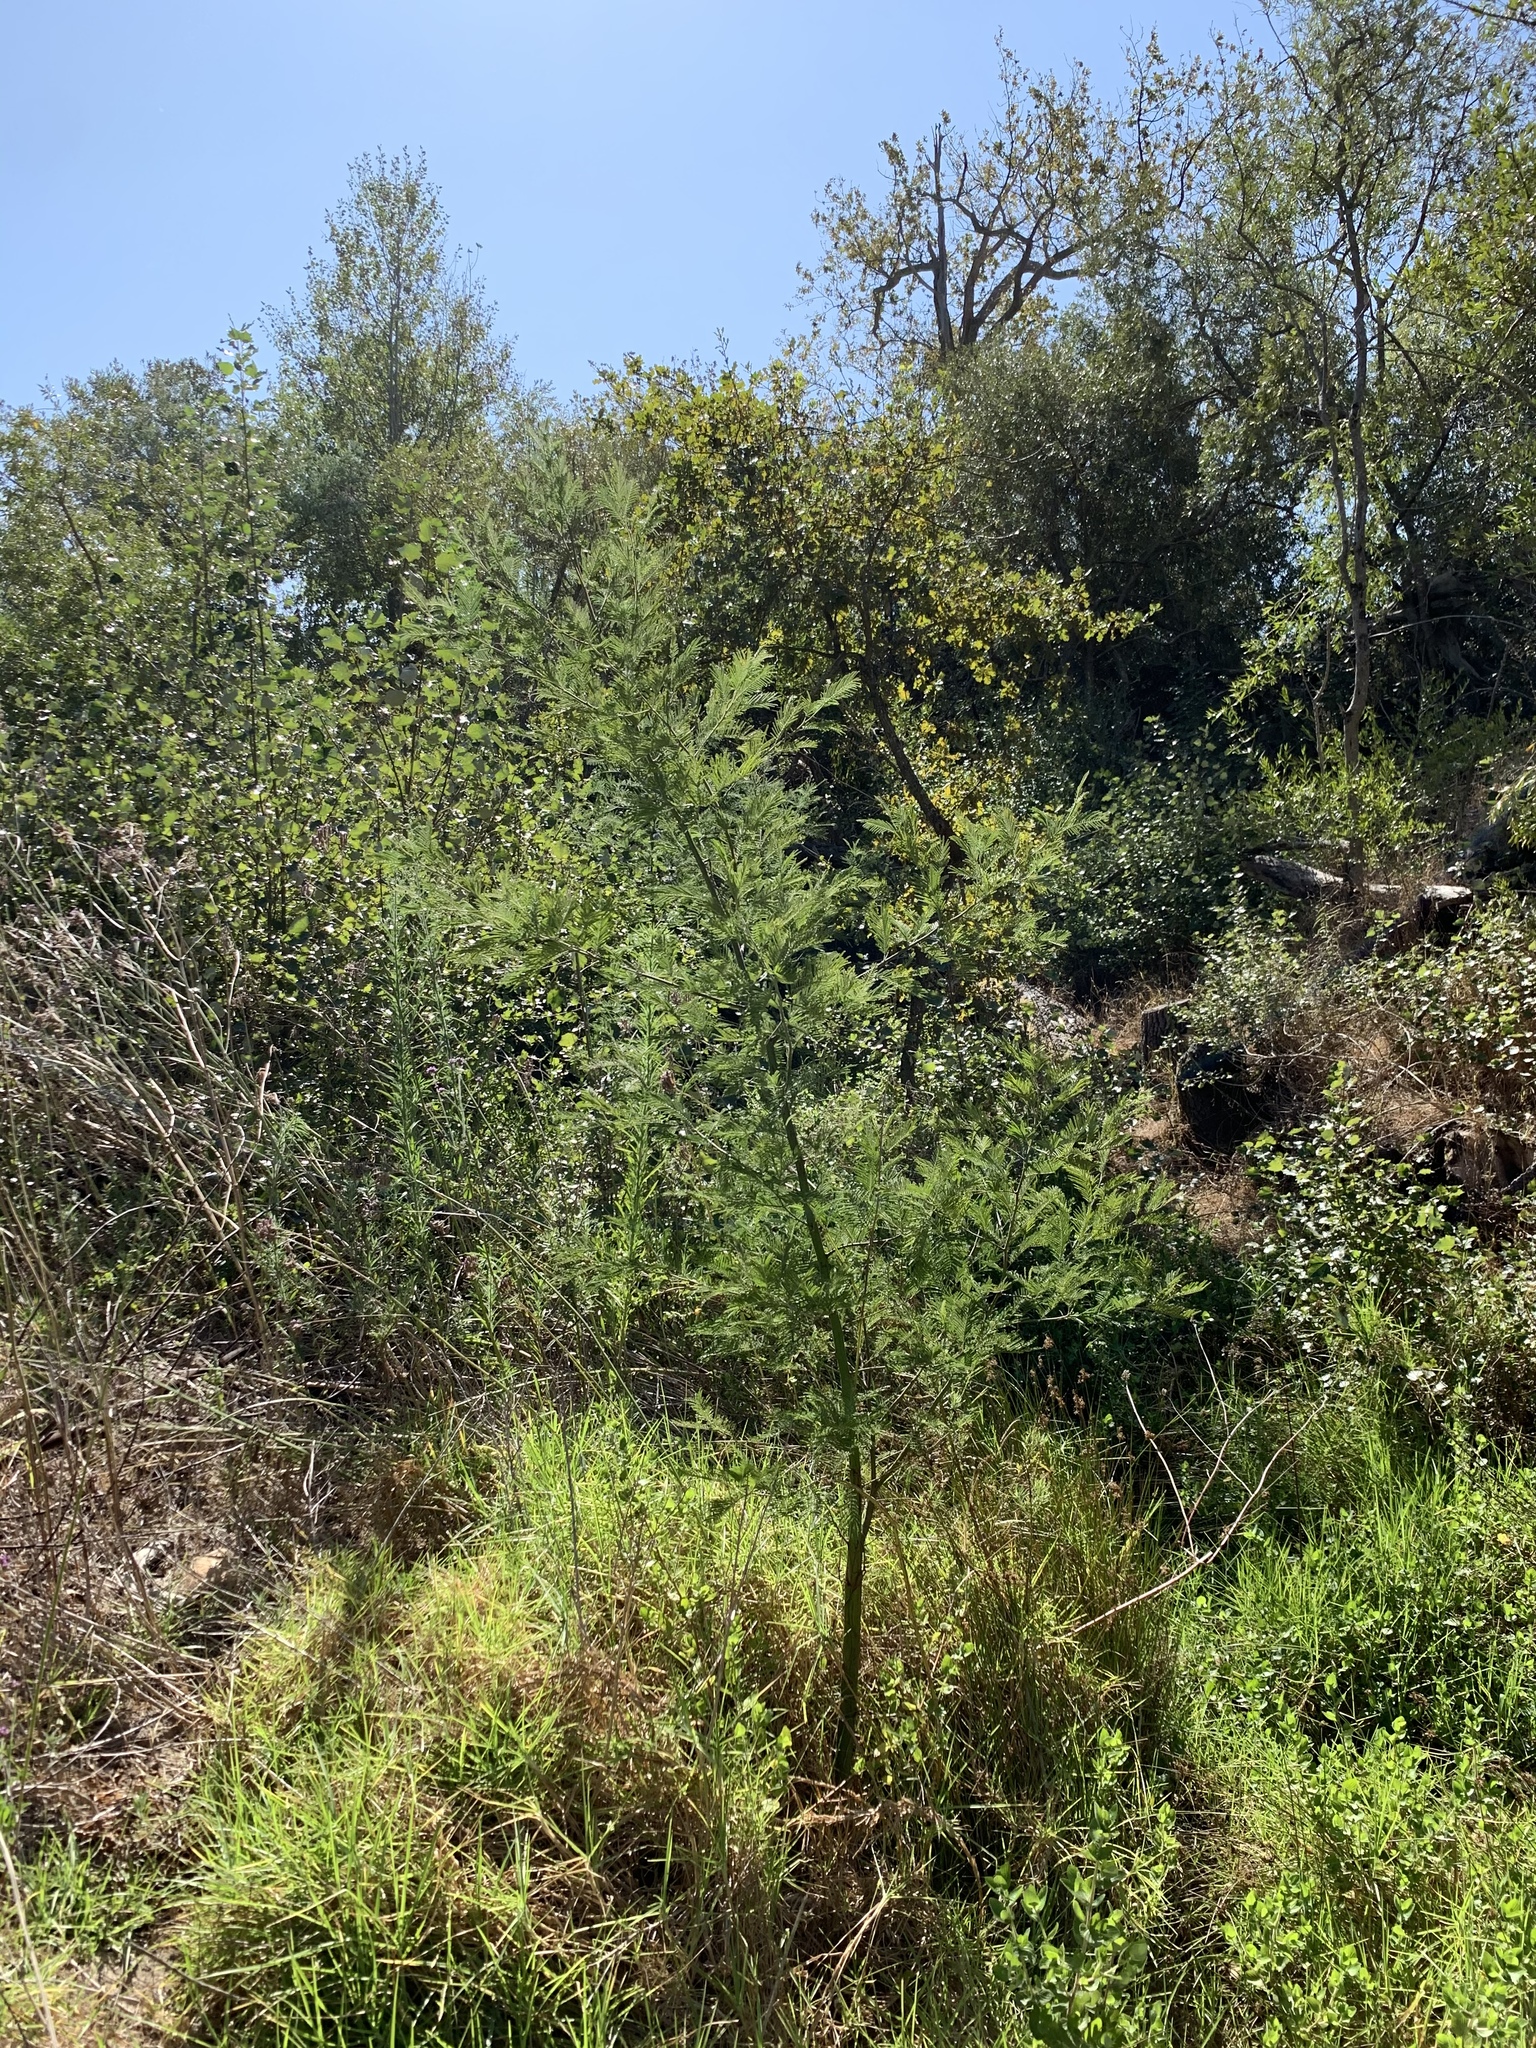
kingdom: Plantae
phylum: Tracheophyta
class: Magnoliopsida
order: Fabales
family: Fabaceae
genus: Acacia
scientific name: Acacia mearnsii
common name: Black wattle
